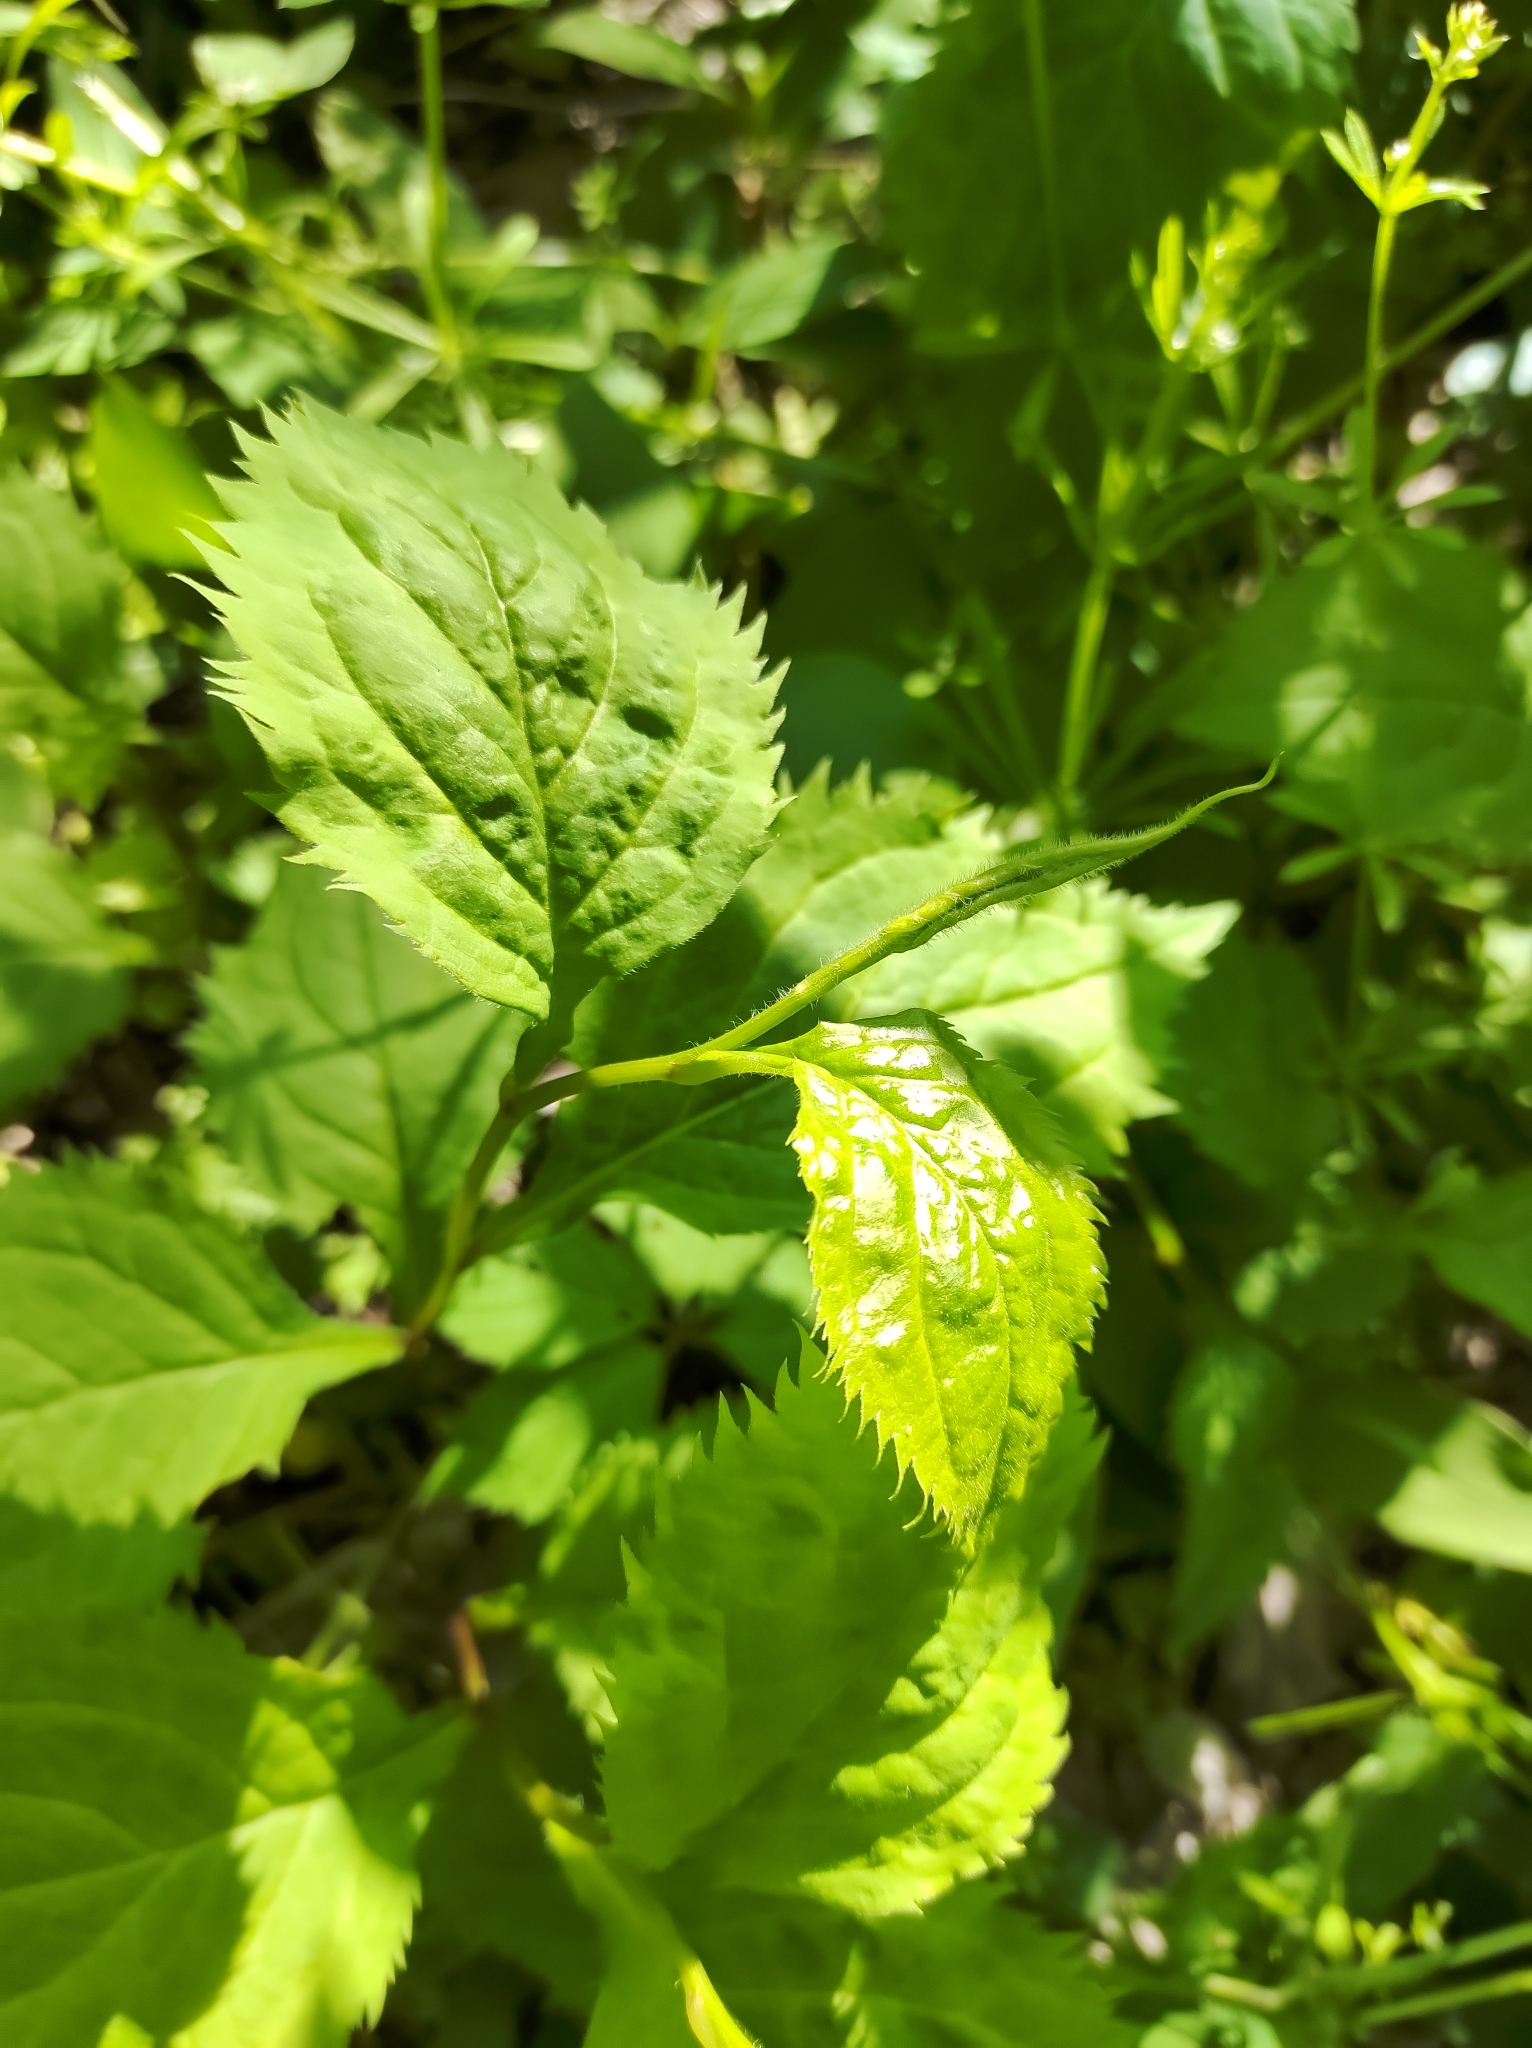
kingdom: Plantae
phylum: Tracheophyta
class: Magnoliopsida
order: Asterales
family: Asteraceae
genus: Solidago
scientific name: Solidago flexicaulis
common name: Zig-zag goldenrod
